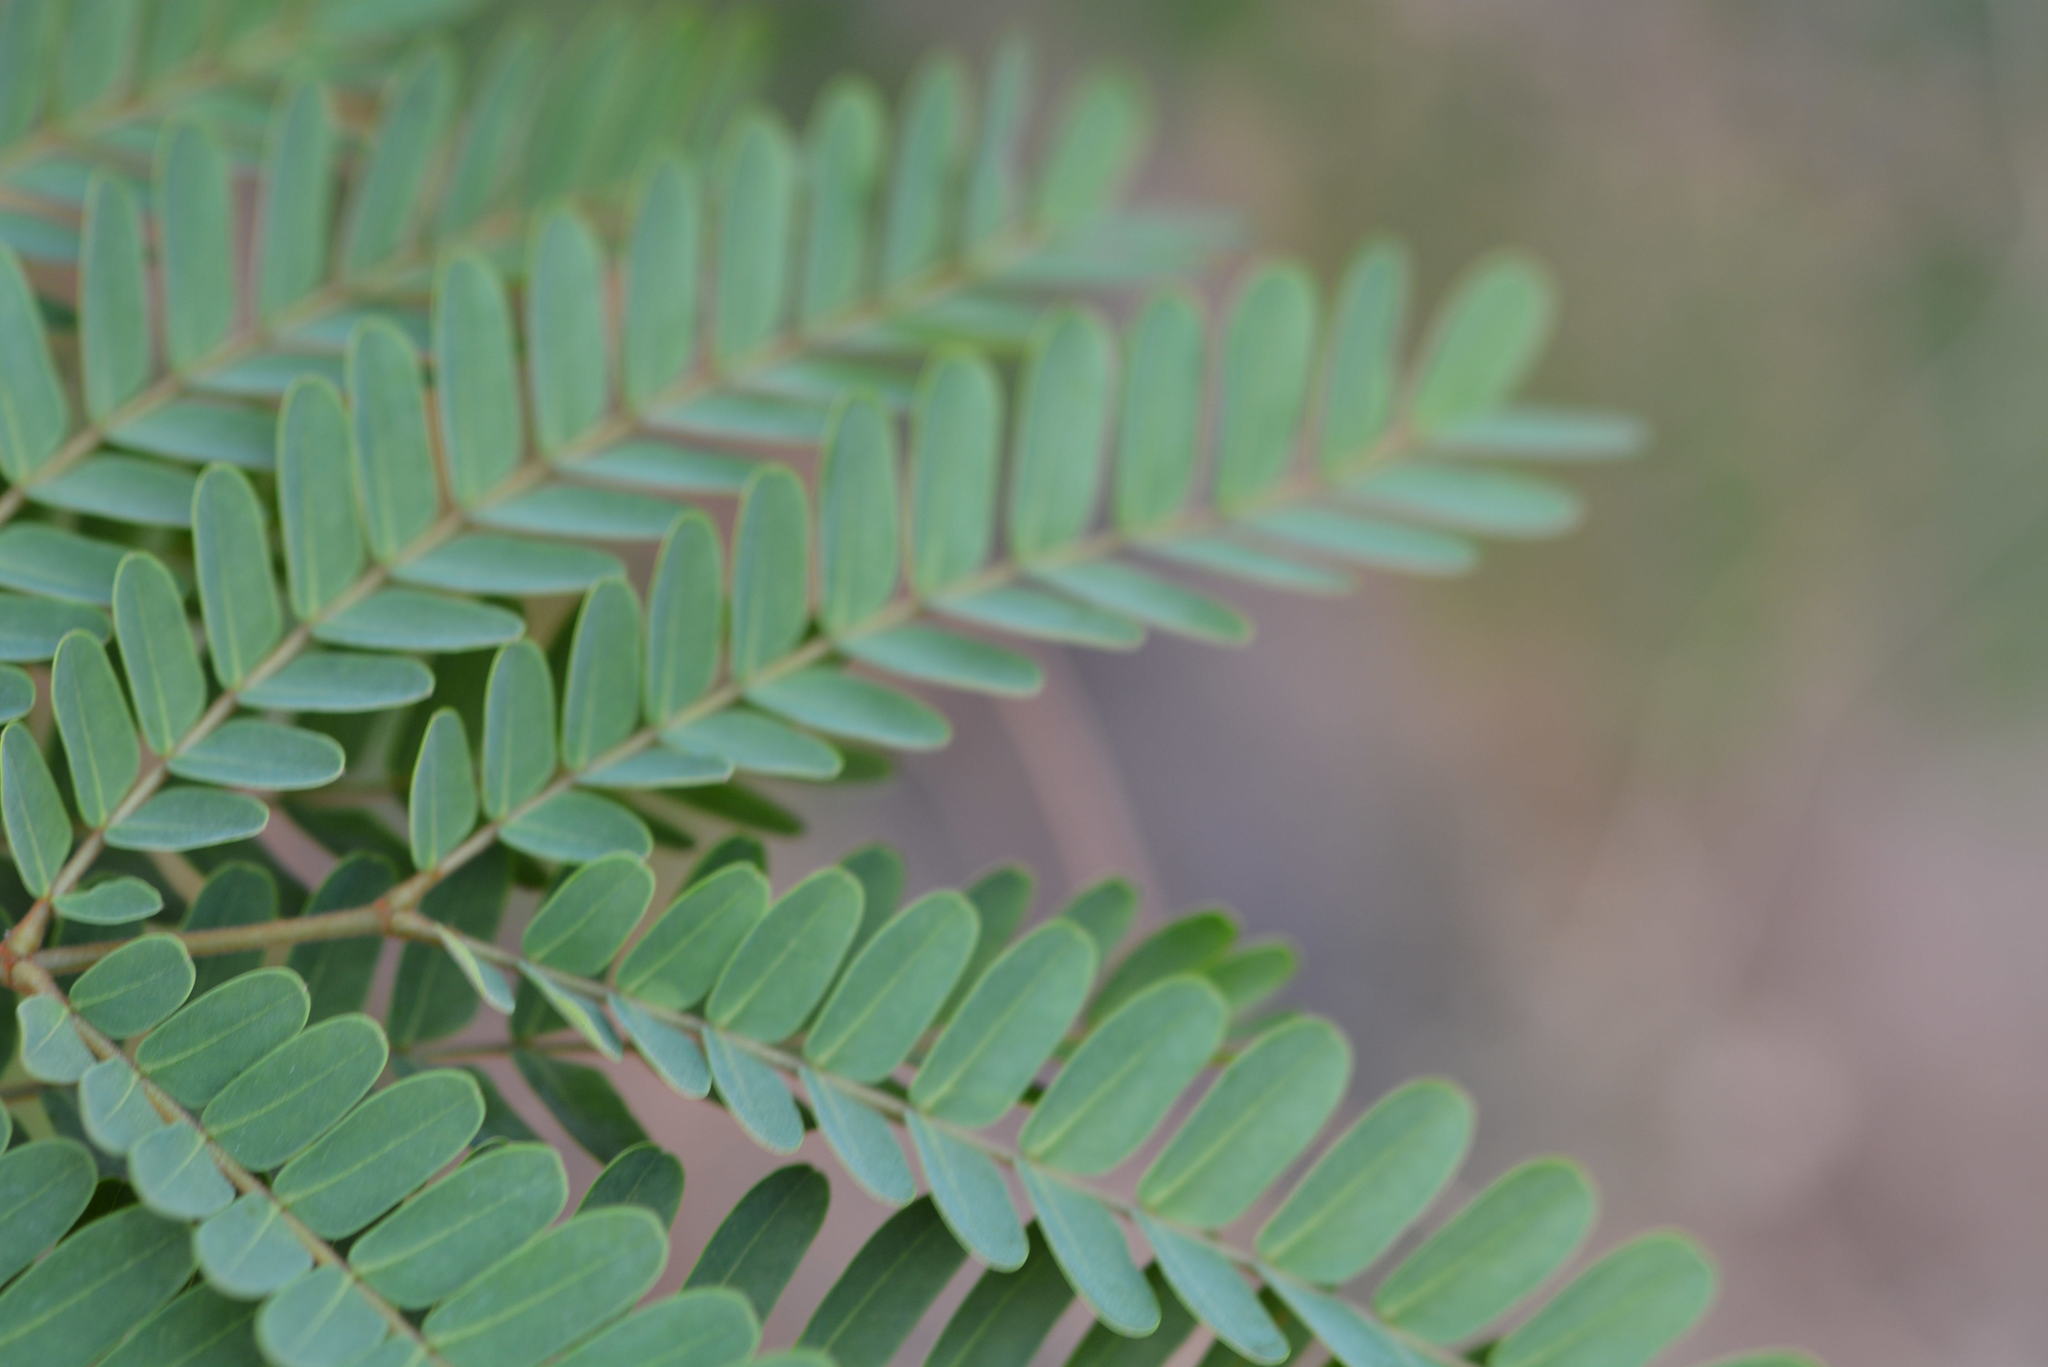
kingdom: Plantae
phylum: Tracheophyta
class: Magnoliopsida
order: Fabales
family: Fabaceae
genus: Peltophorum
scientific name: Peltophorum pterocarpum
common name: Yellow flame
